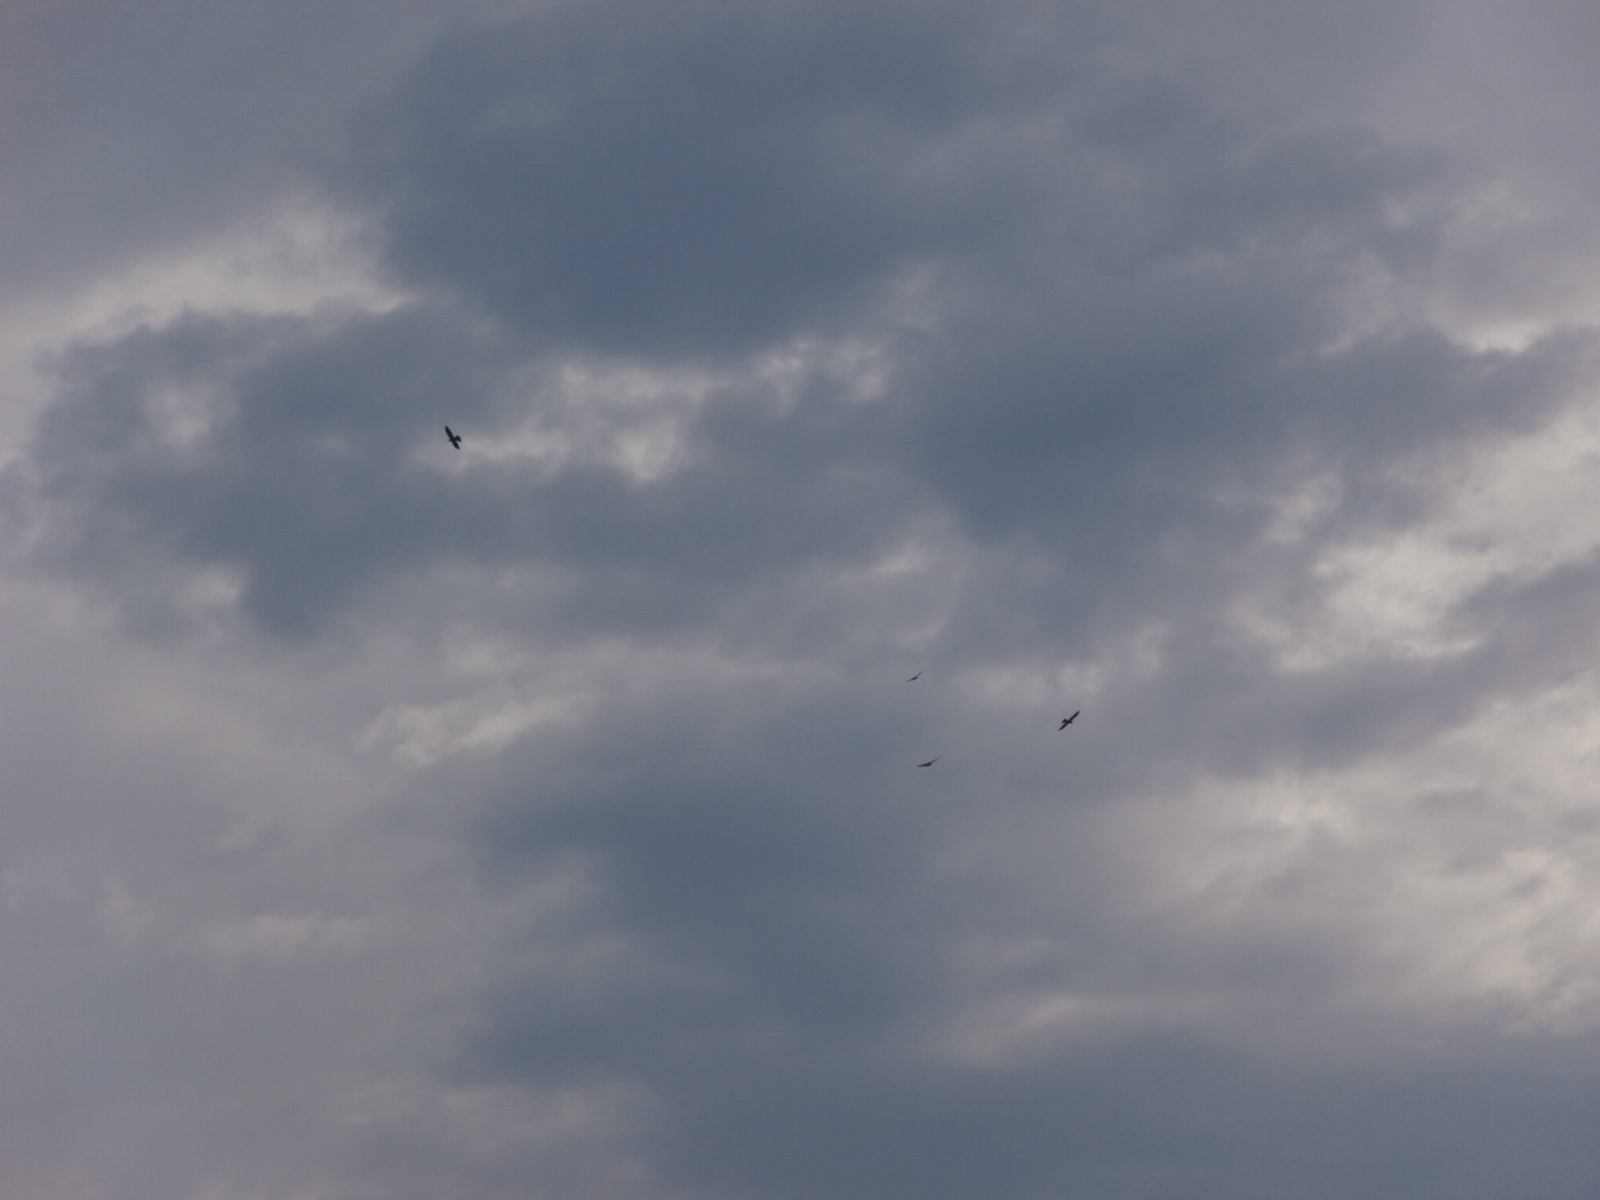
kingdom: Animalia
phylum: Chordata
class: Aves
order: Accipitriformes
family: Accipitridae
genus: Ictinia
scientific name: Ictinia mississippiensis
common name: Mississippi kite
